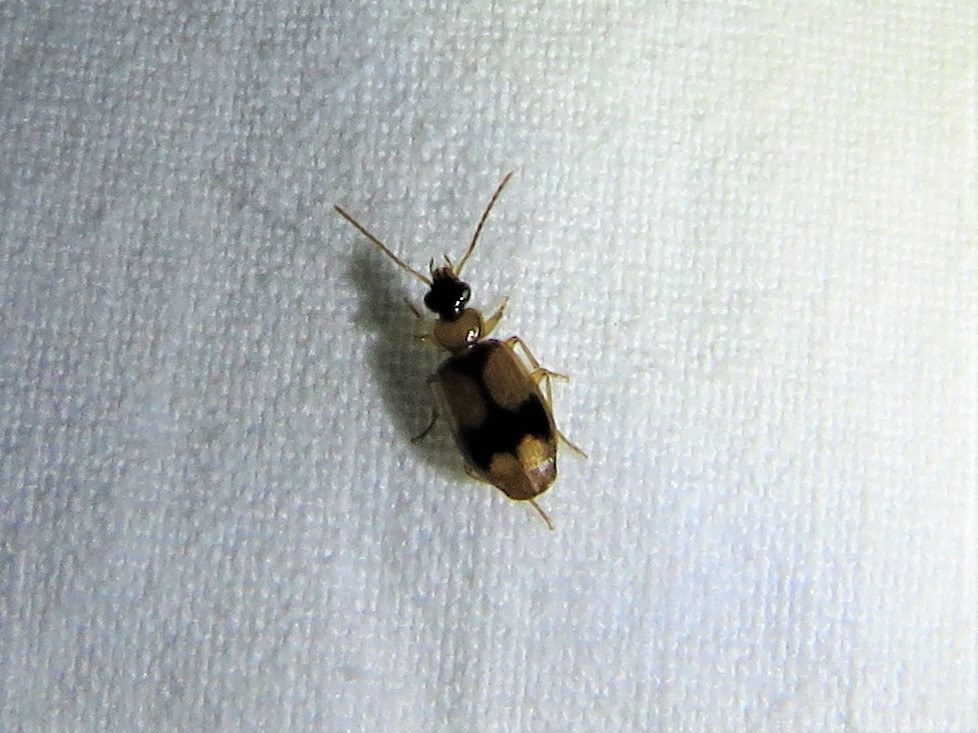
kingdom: Animalia
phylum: Arthropoda
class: Insecta
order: Coleoptera
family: Carabidae
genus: Lebia
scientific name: Lebia esurialis
